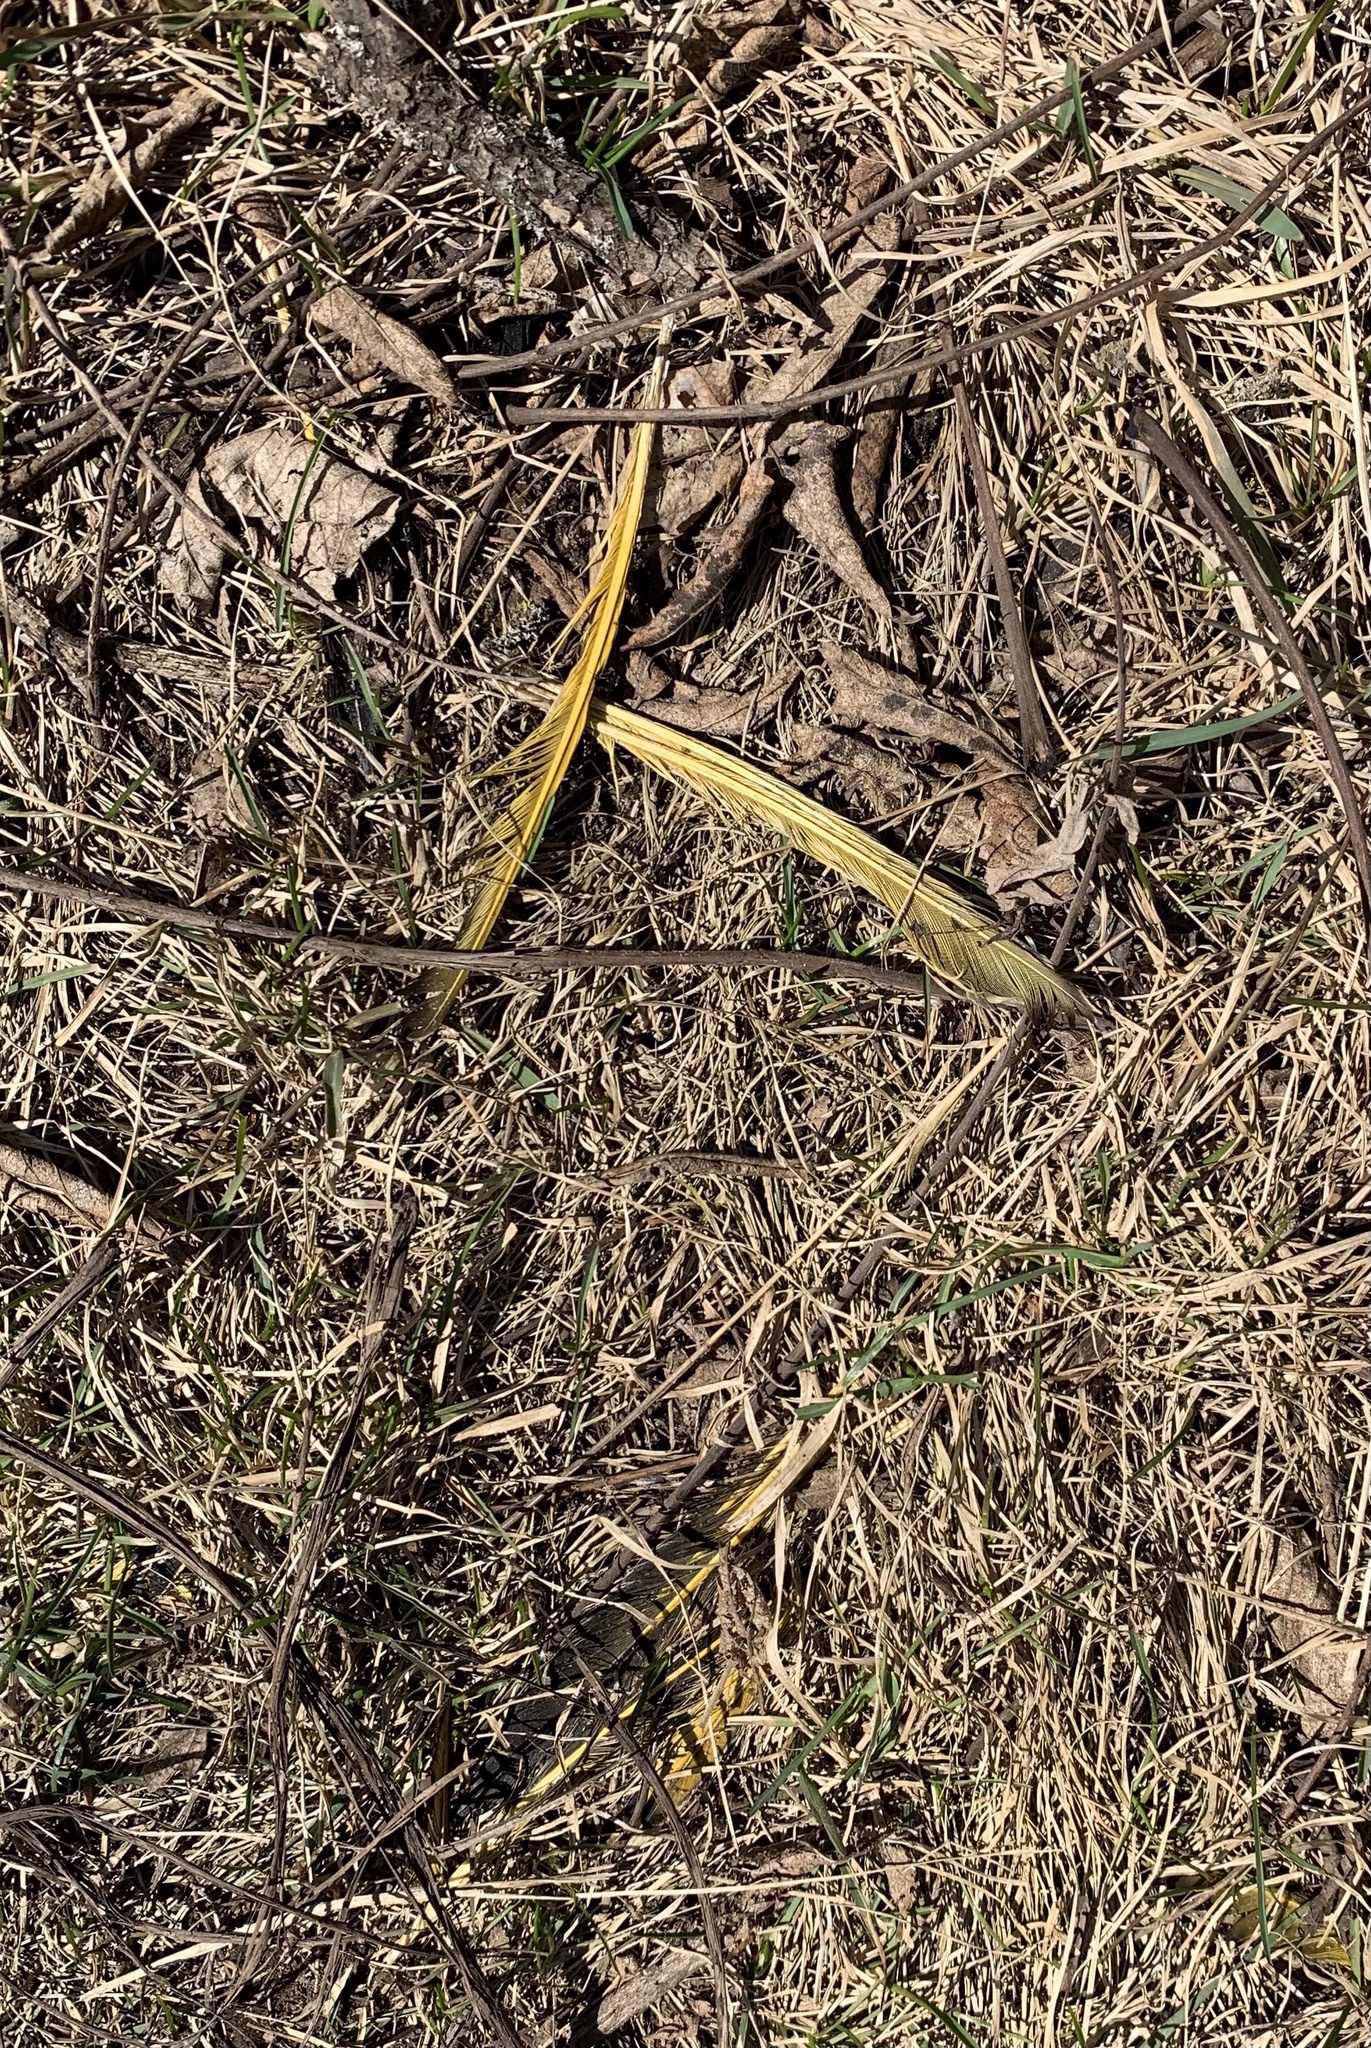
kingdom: Animalia
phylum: Chordata
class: Aves
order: Piciformes
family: Picidae
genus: Colaptes
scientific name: Colaptes auratus
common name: Northern flicker
